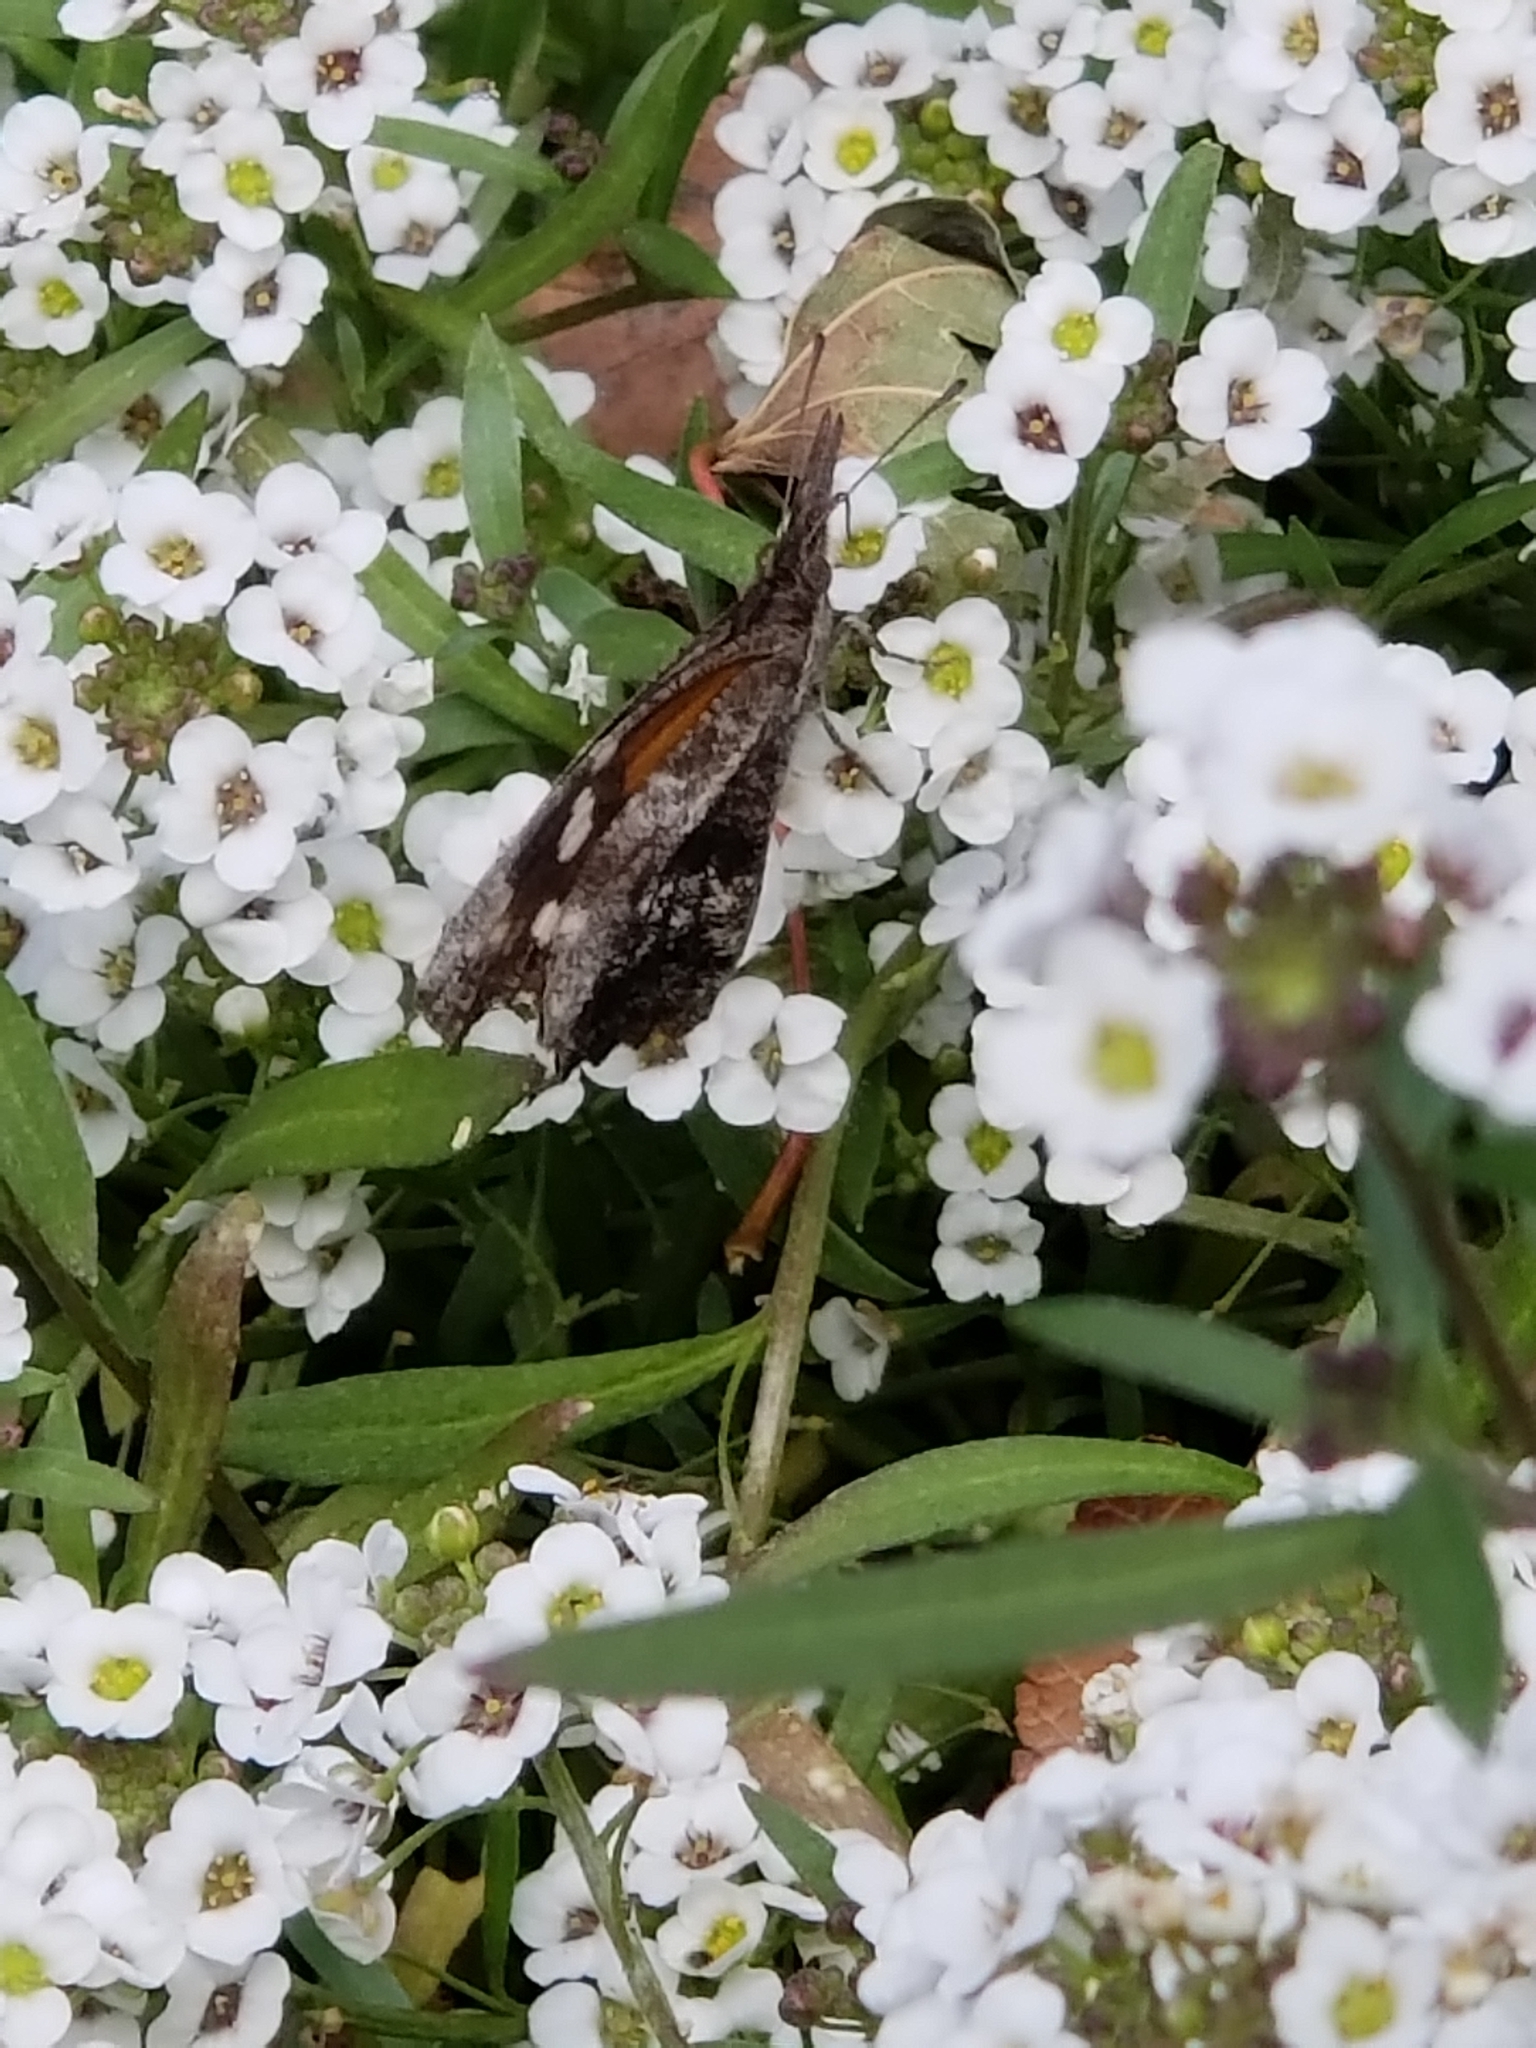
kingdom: Animalia
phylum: Arthropoda
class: Insecta
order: Lepidoptera
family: Nymphalidae
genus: Libytheana
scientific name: Libytheana carinenta
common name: American snout
